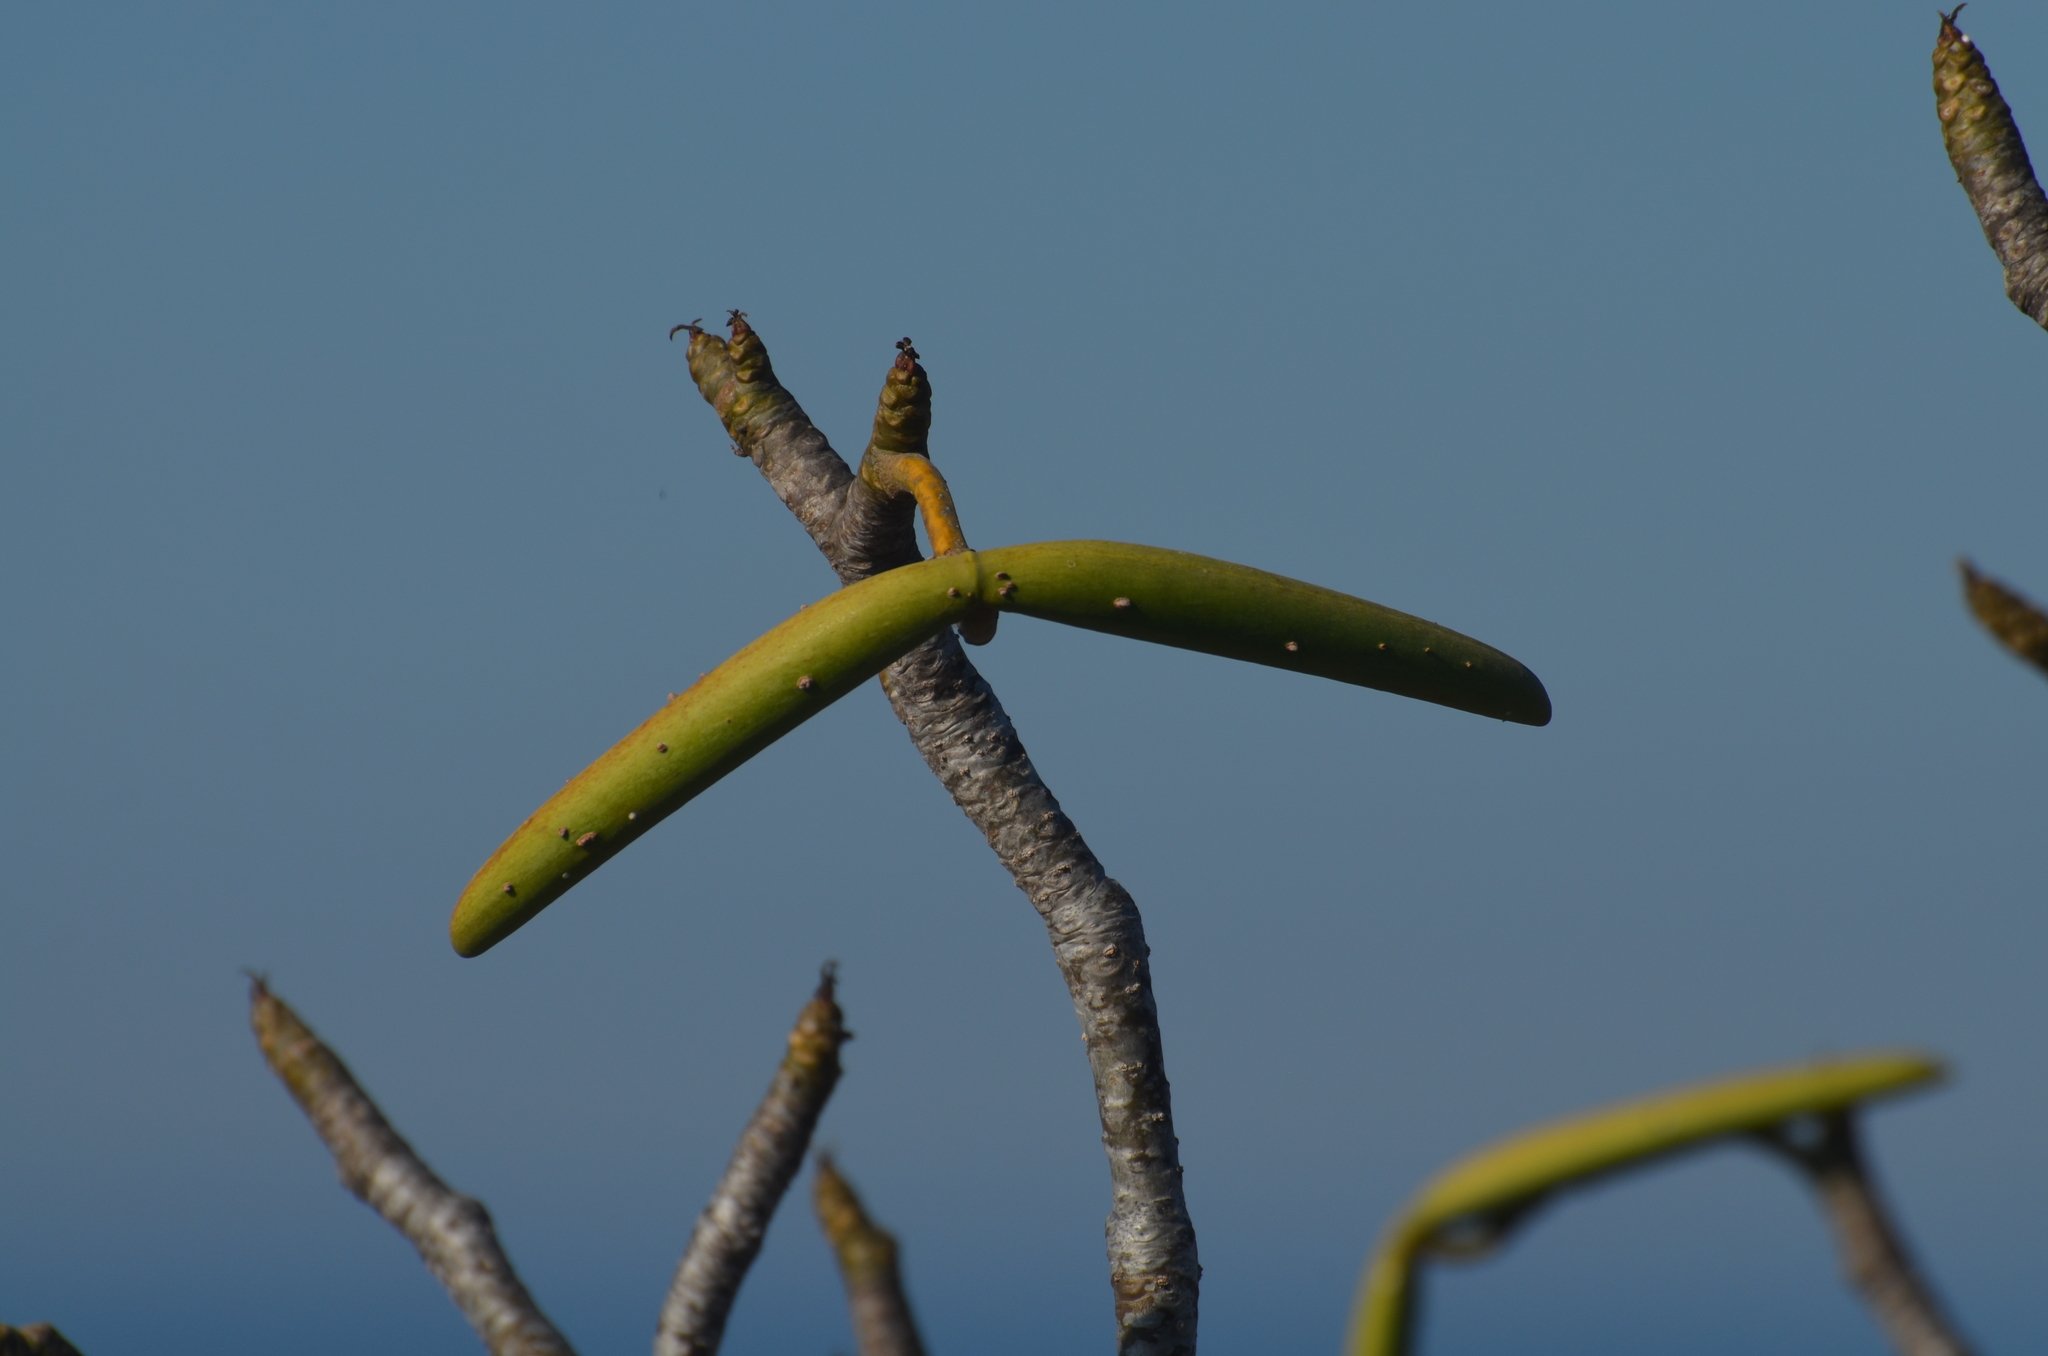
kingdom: Plantae
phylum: Tracheophyta
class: Magnoliopsida
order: Gentianales
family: Apocynaceae
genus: Plumeria
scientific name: Plumeria rubra
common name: Pagoda-tree
